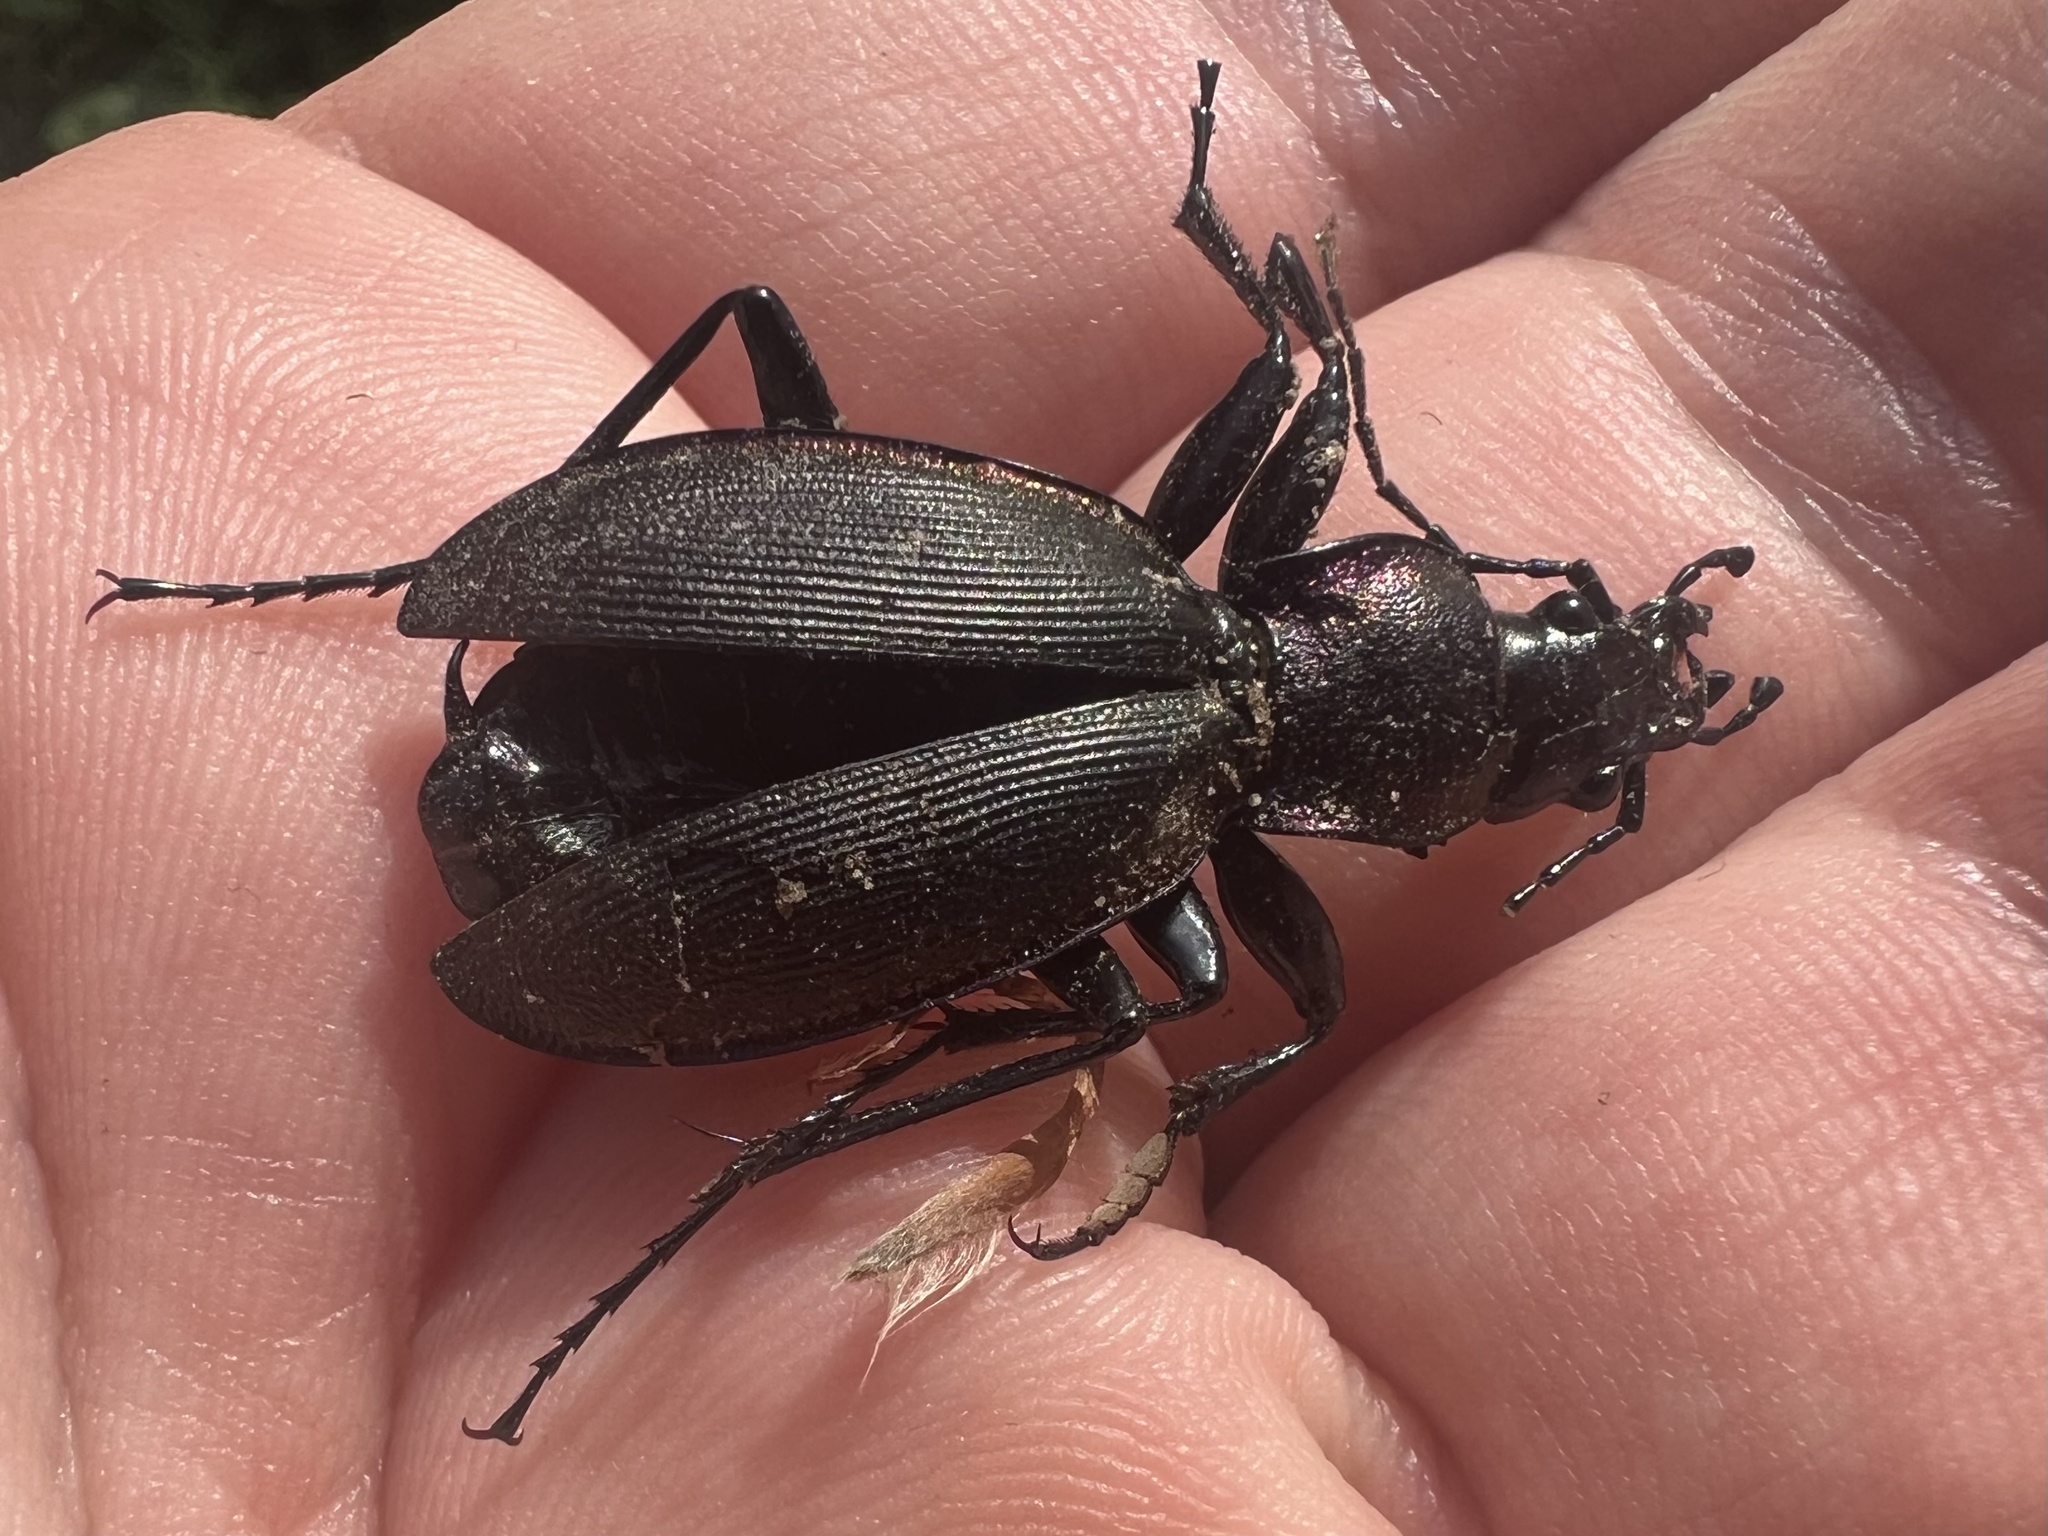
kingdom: Animalia
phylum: Arthropoda
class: Insecta
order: Coleoptera
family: Carabidae
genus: Carabus
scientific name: Carabus purpurascens
